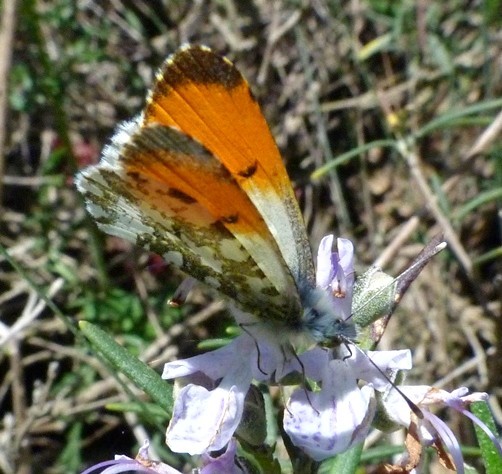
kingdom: Animalia
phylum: Arthropoda
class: Insecta
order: Lepidoptera
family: Pieridae
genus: Anthocharis
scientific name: Anthocharis cardamines
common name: Orange-tip
